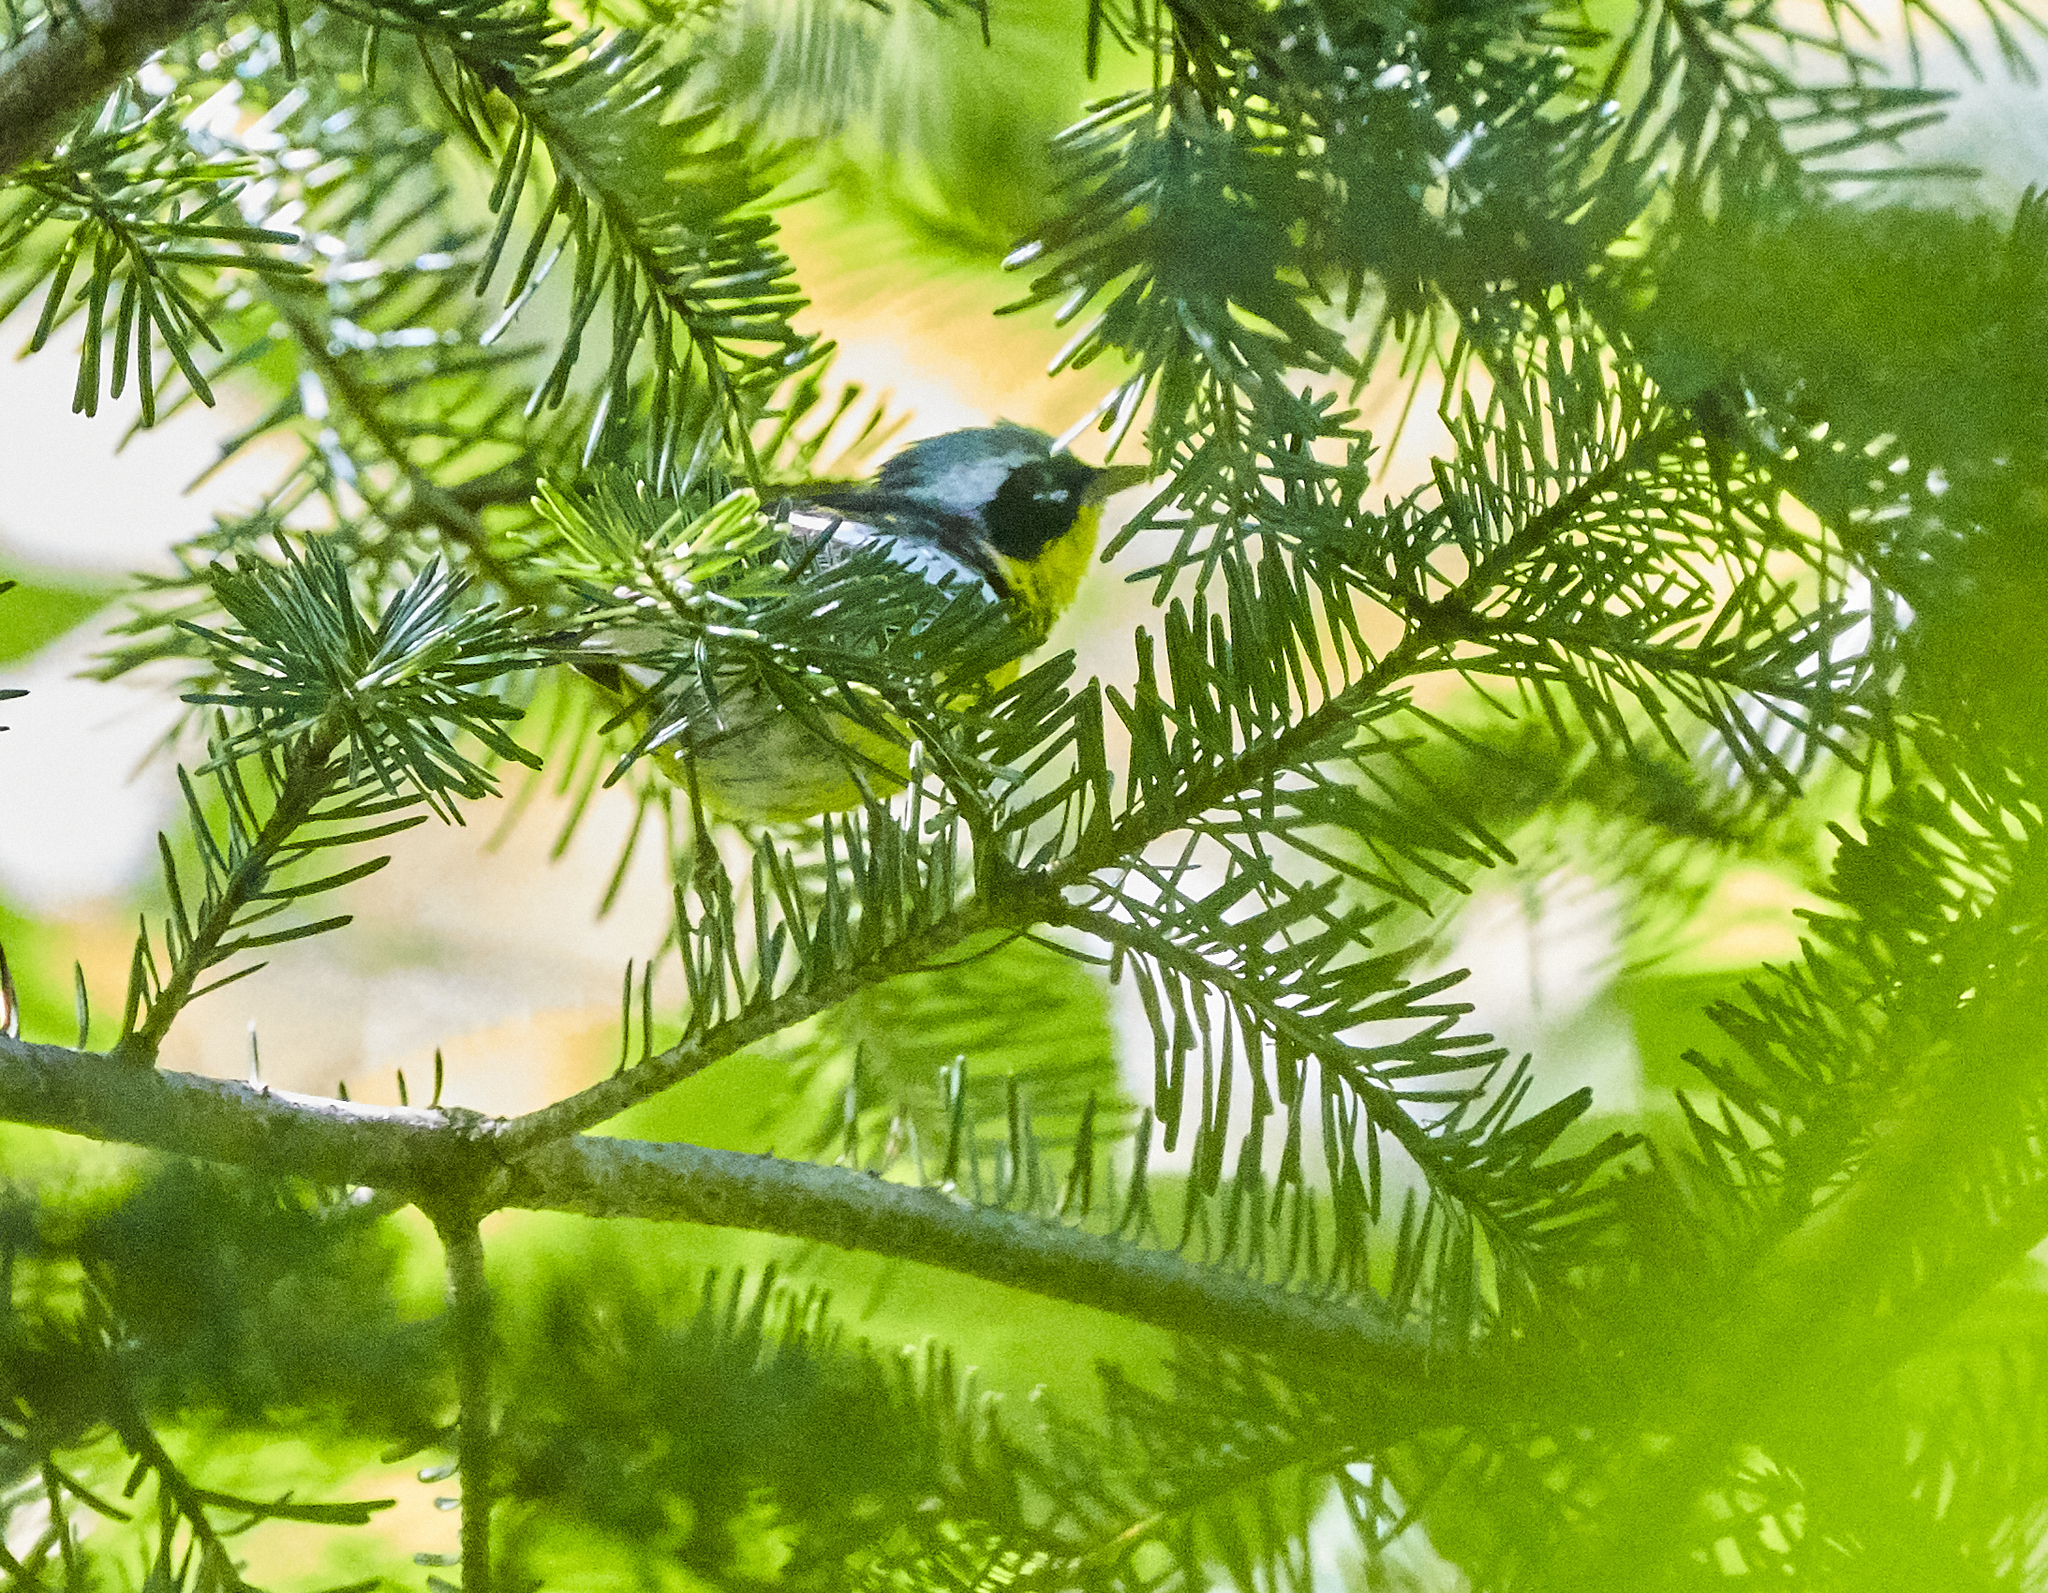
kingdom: Animalia
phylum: Chordata
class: Aves
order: Passeriformes
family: Parulidae
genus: Setophaga
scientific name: Setophaga magnolia
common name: Magnolia warbler
